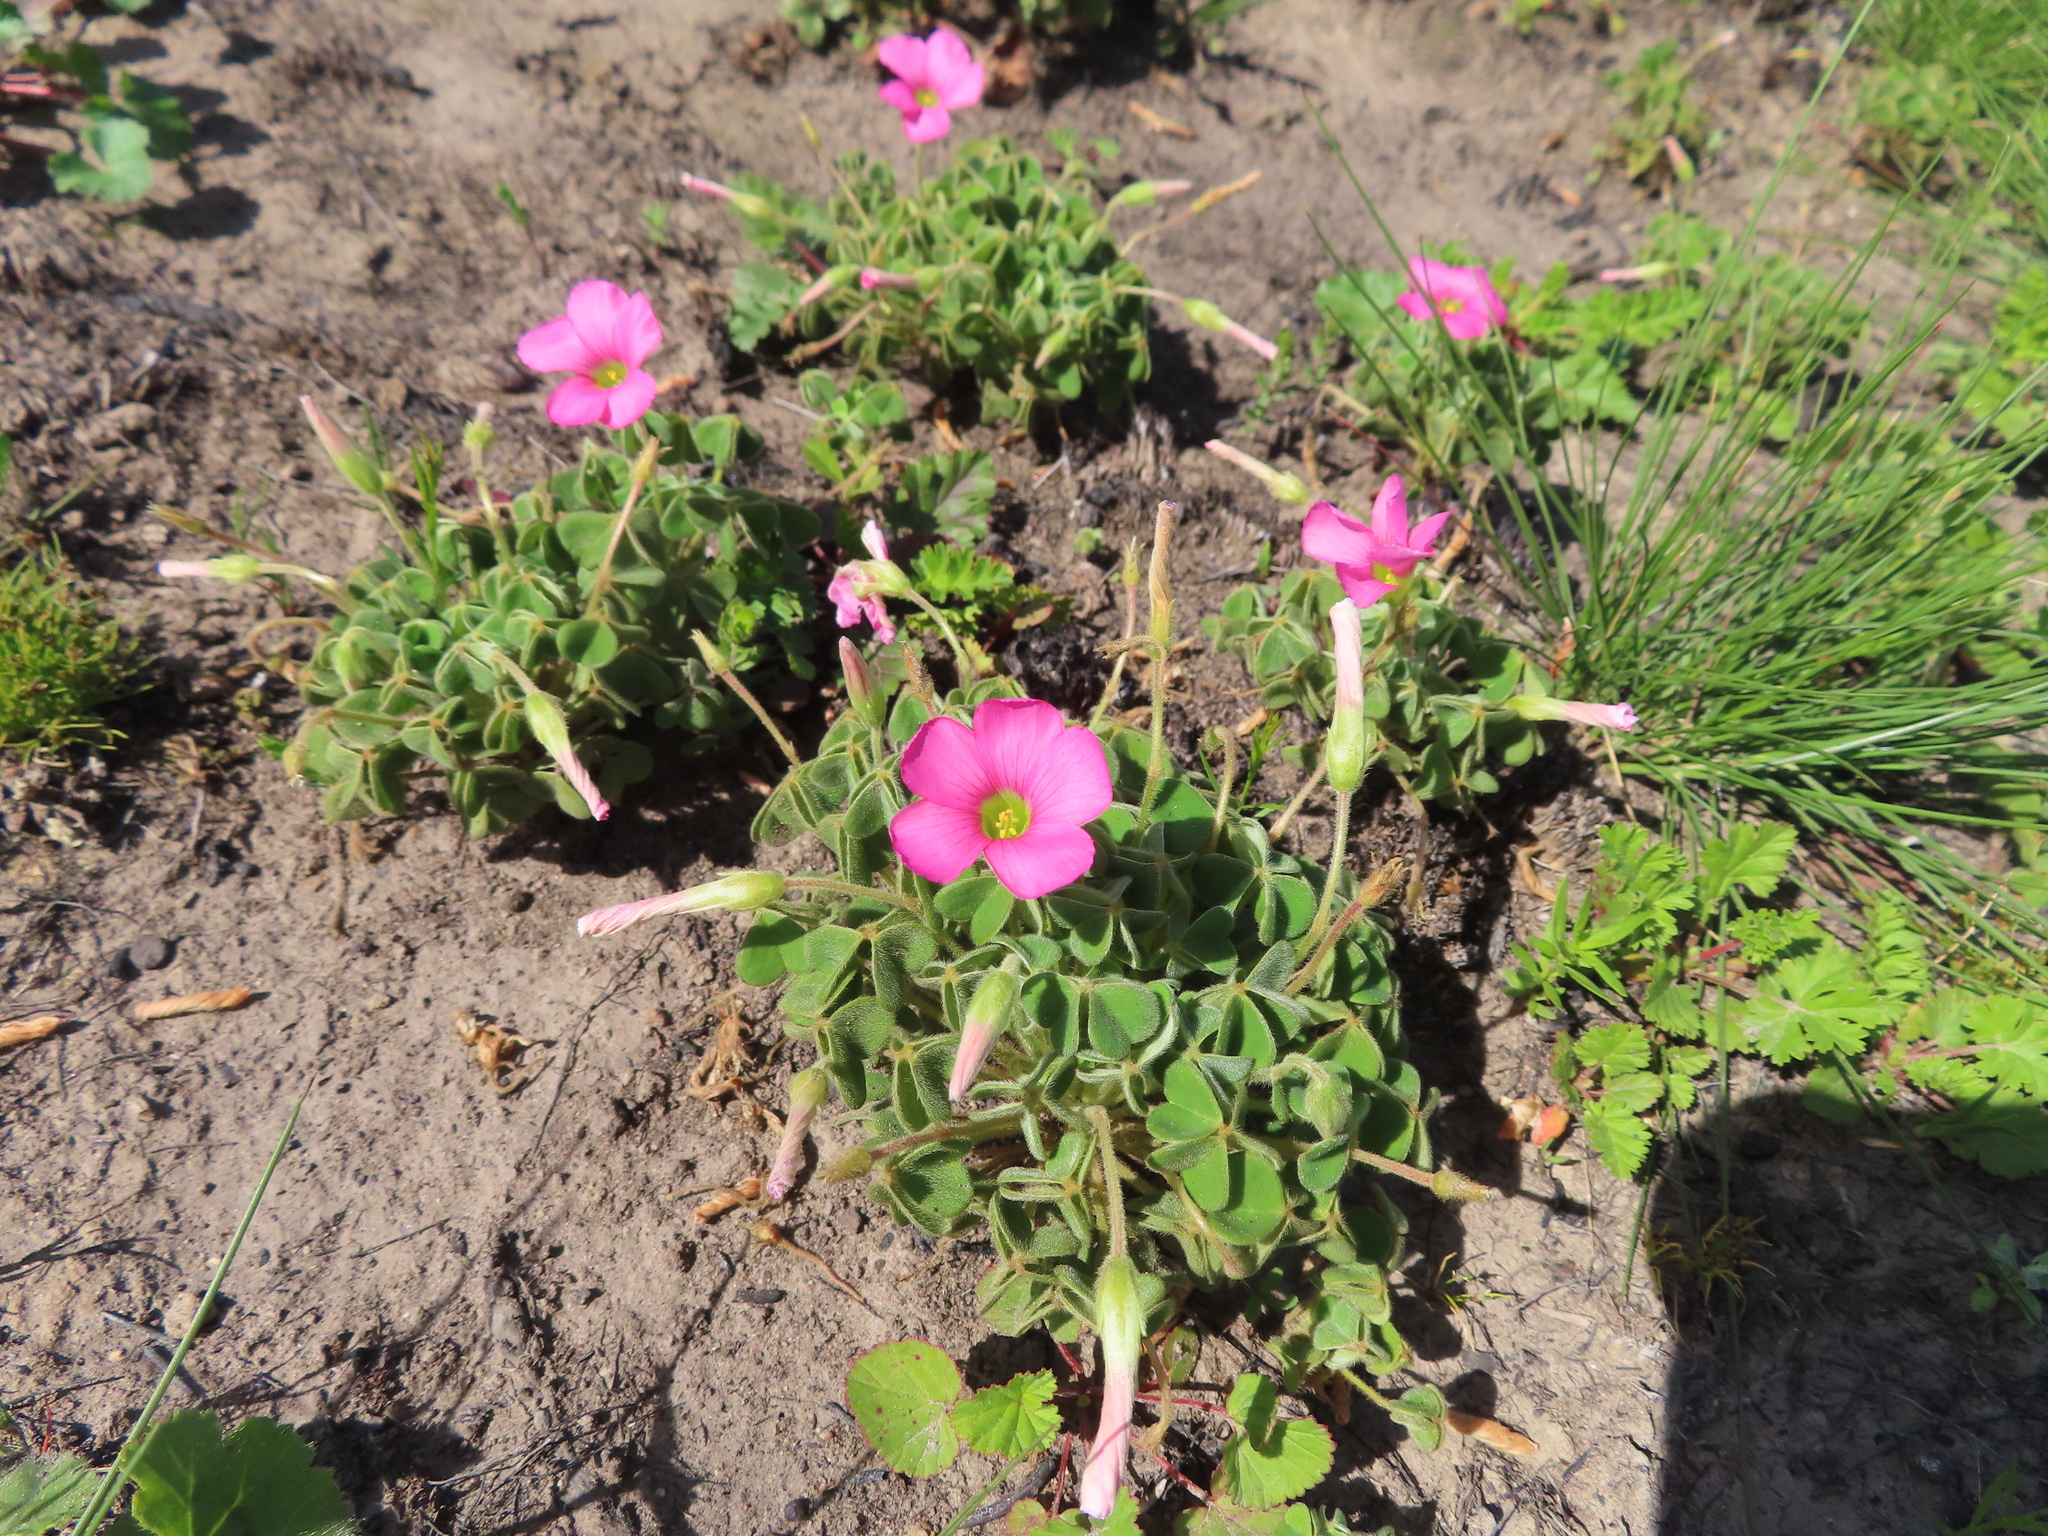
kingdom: Plantae
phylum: Tracheophyta
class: Magnoliopsida
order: Oxalidales
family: Oxalidaceae
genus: Oxalis
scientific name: Oxalis lanata
